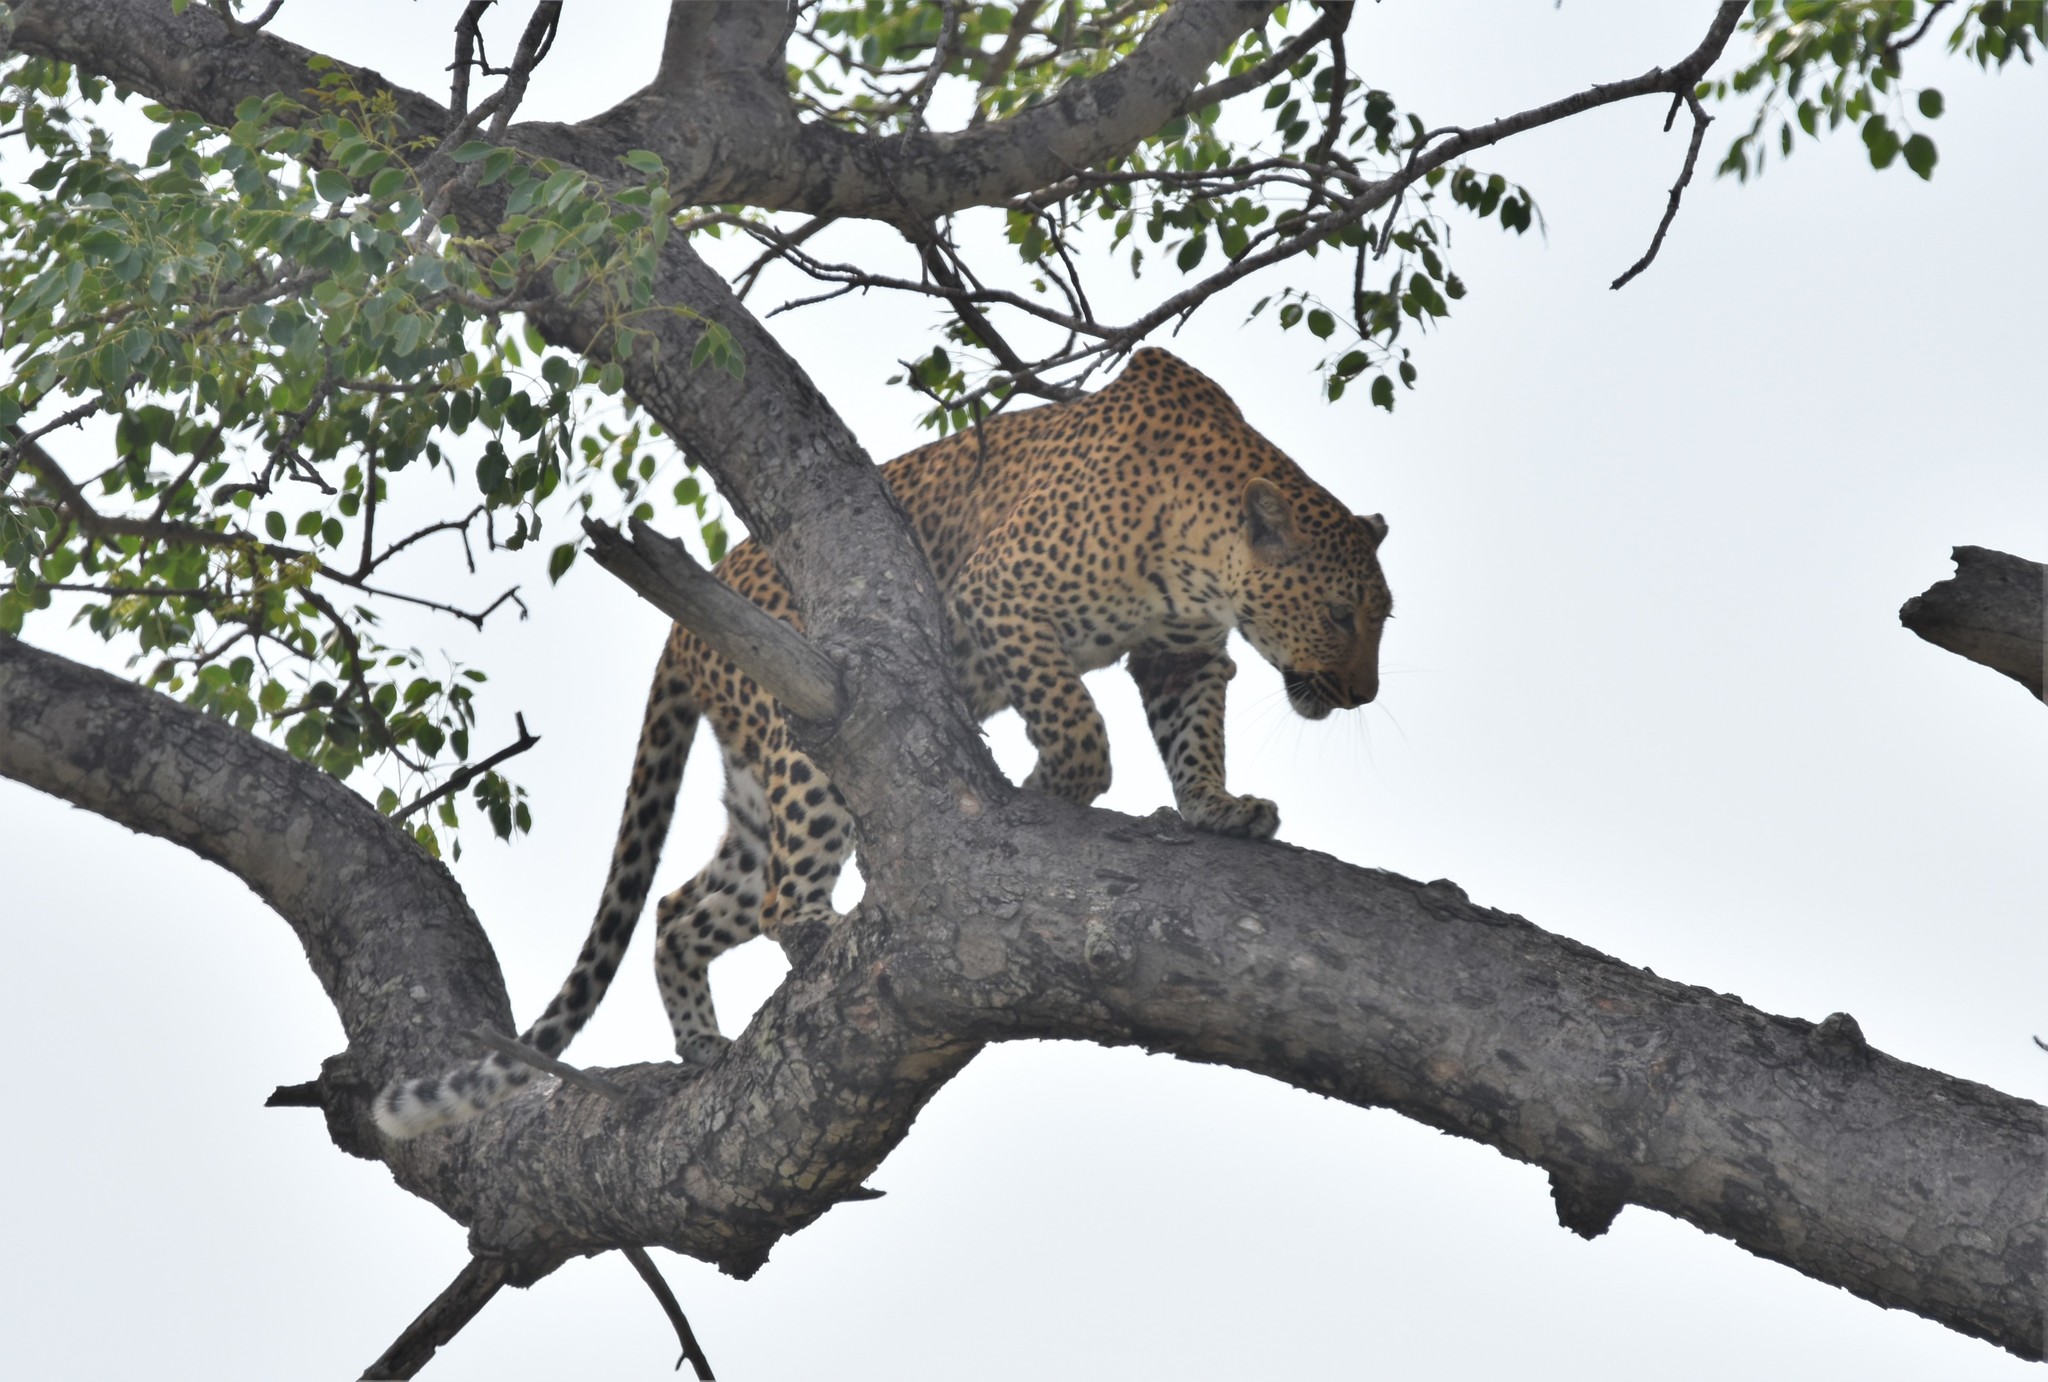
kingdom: Animalia
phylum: Chordata
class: Mammalia
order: Carnivora
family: Felidae
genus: Panthera
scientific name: Panthera pardus
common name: Leopard
